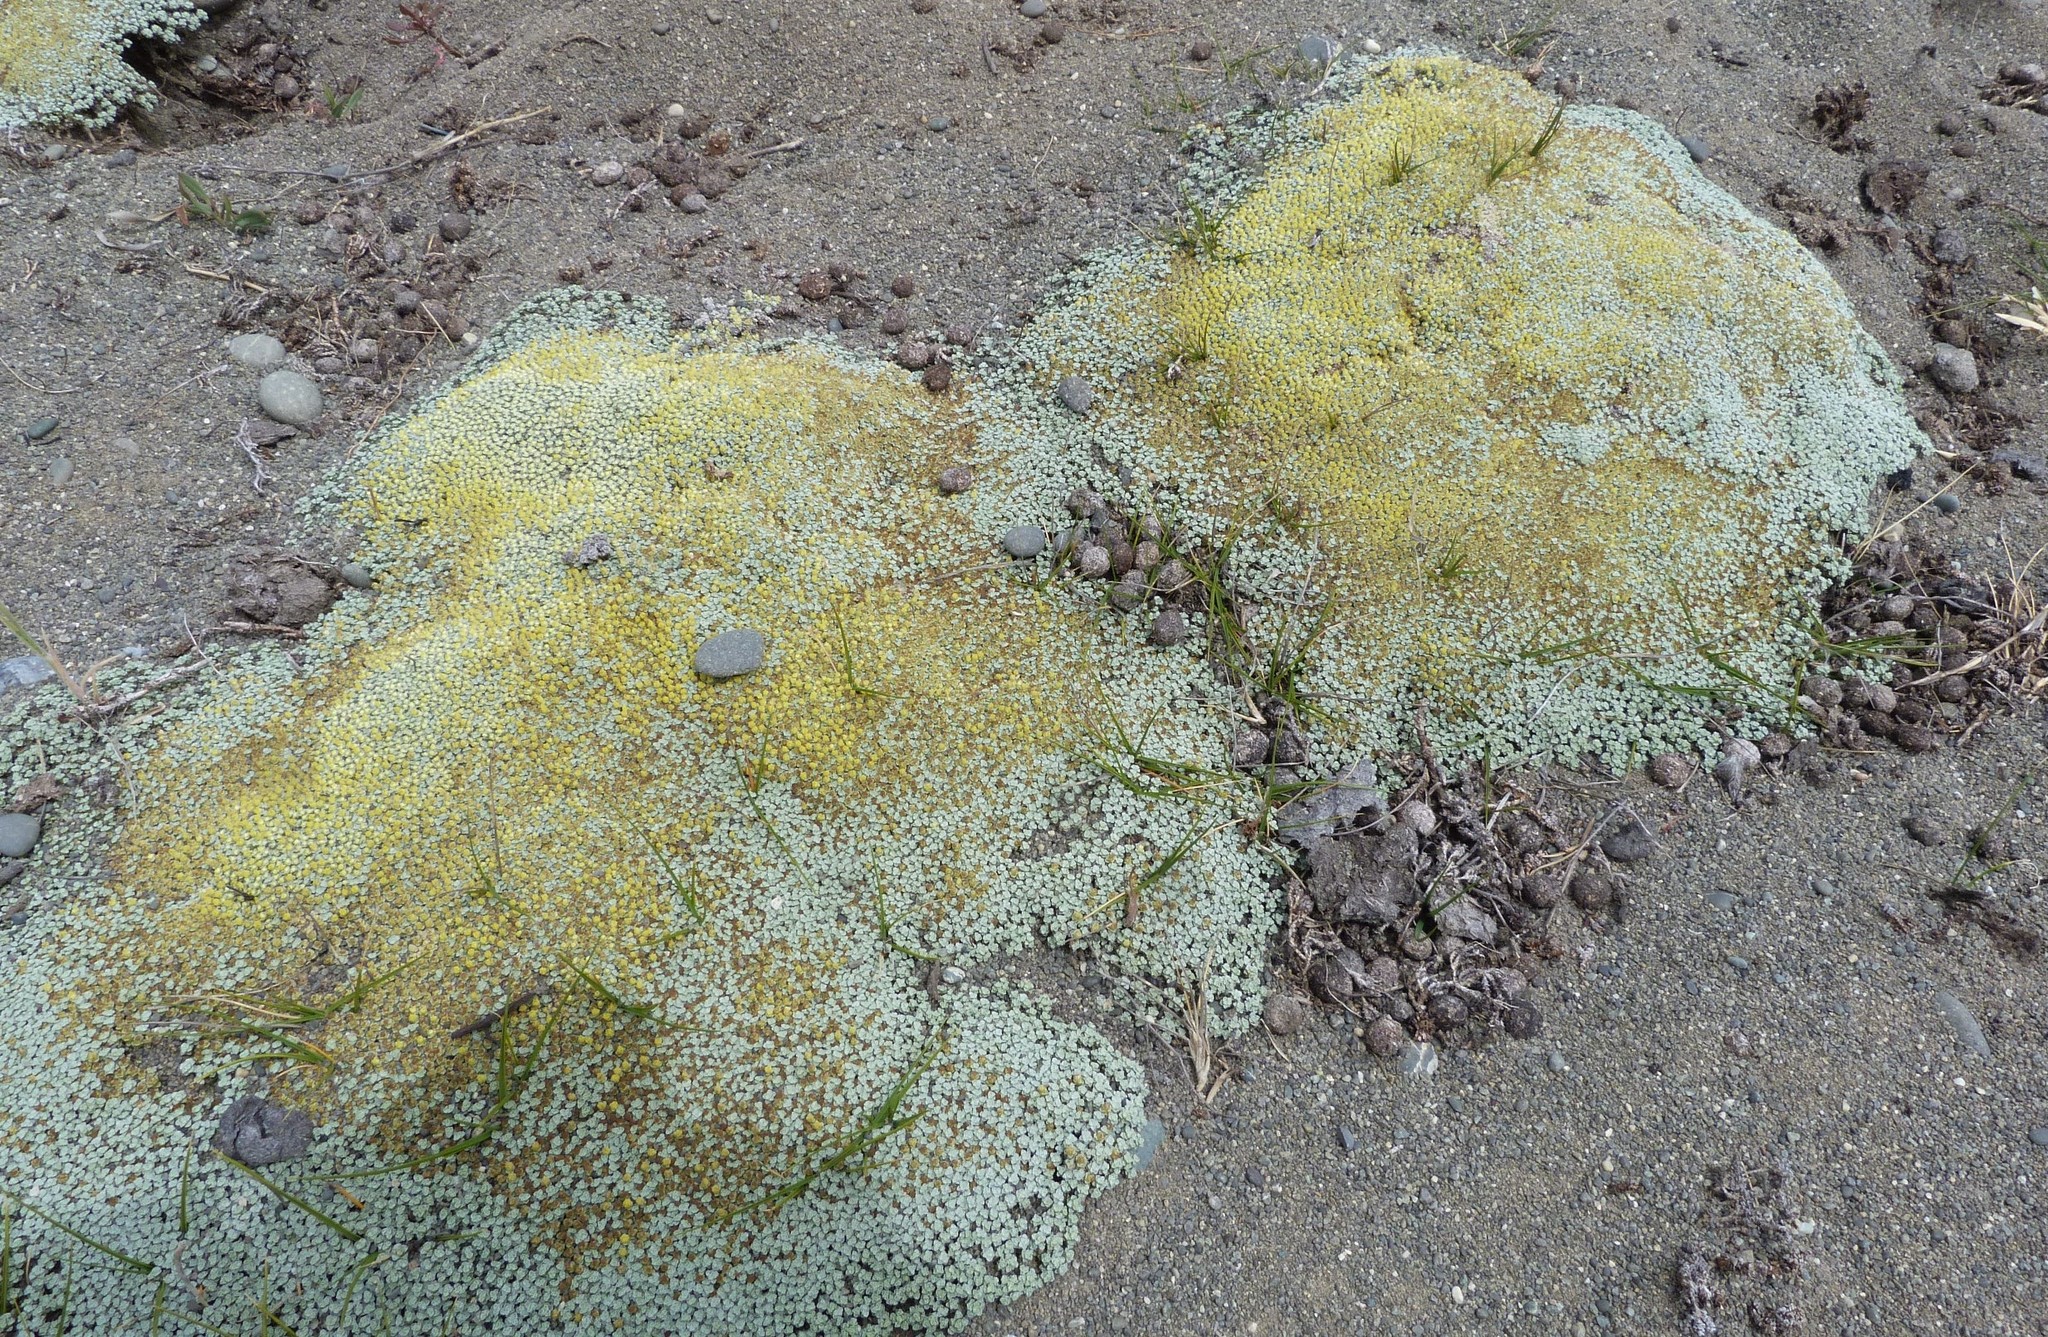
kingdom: Plantae
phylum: Tracheophyta
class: Magnoliopsida
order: Asterales
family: Asteraceae
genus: Raoulia
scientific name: Raoulia australis
